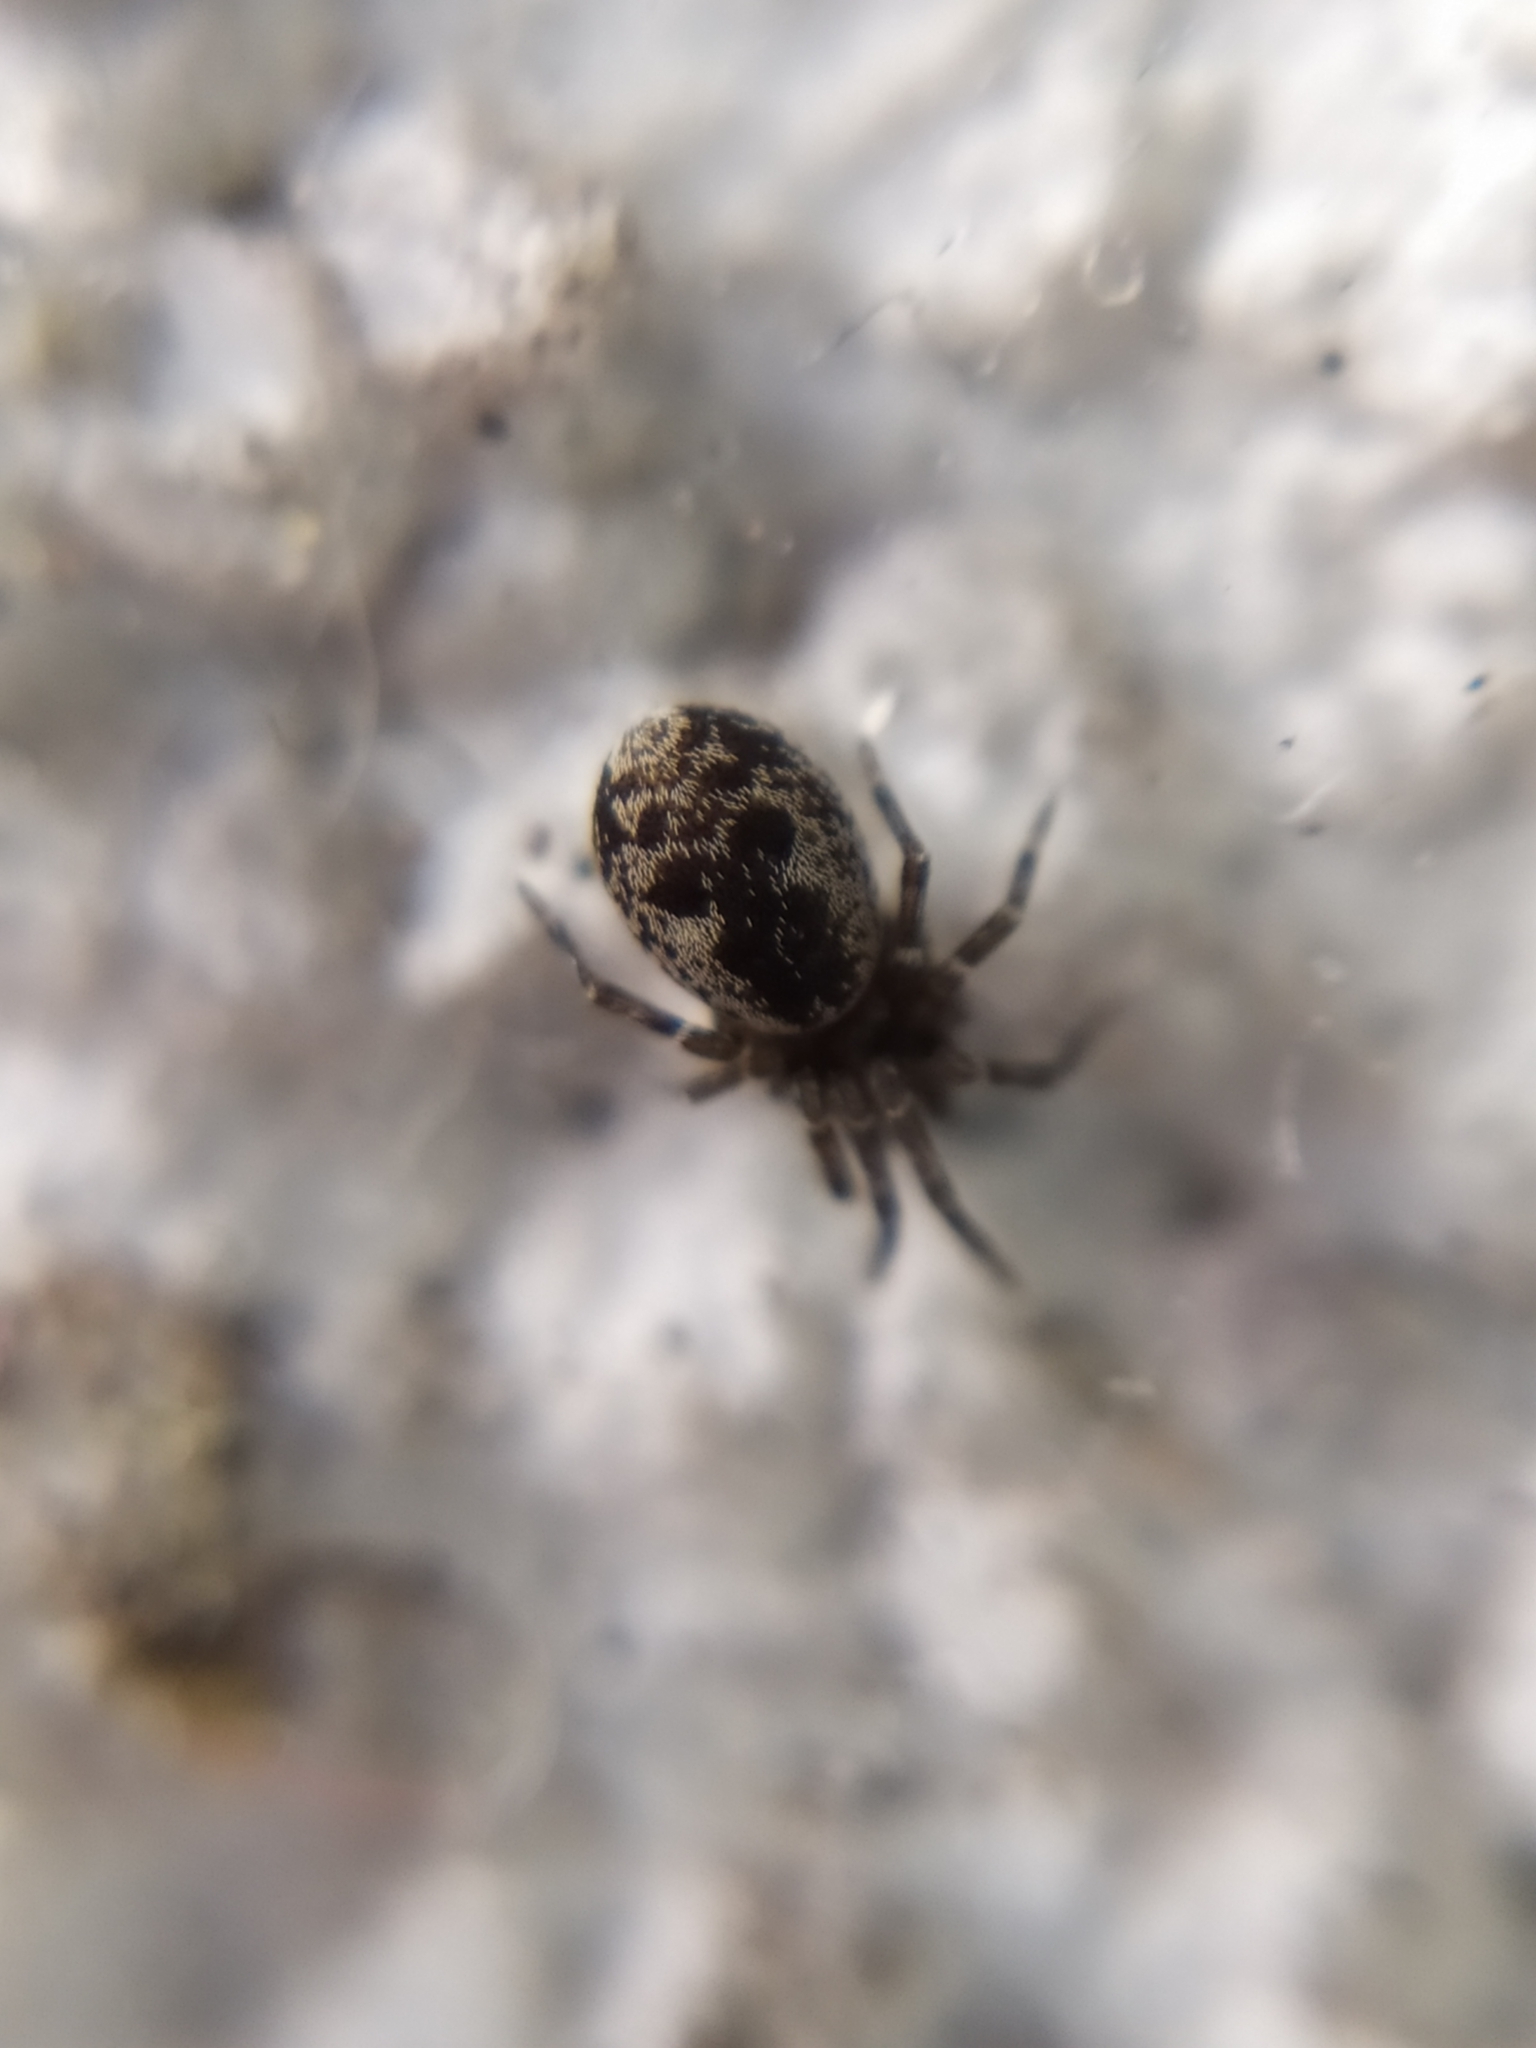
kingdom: Animalia
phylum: Arthropoda
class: Arachnida
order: Araneae
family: Dictynidae
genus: Brigittea
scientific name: Brigittea civica
